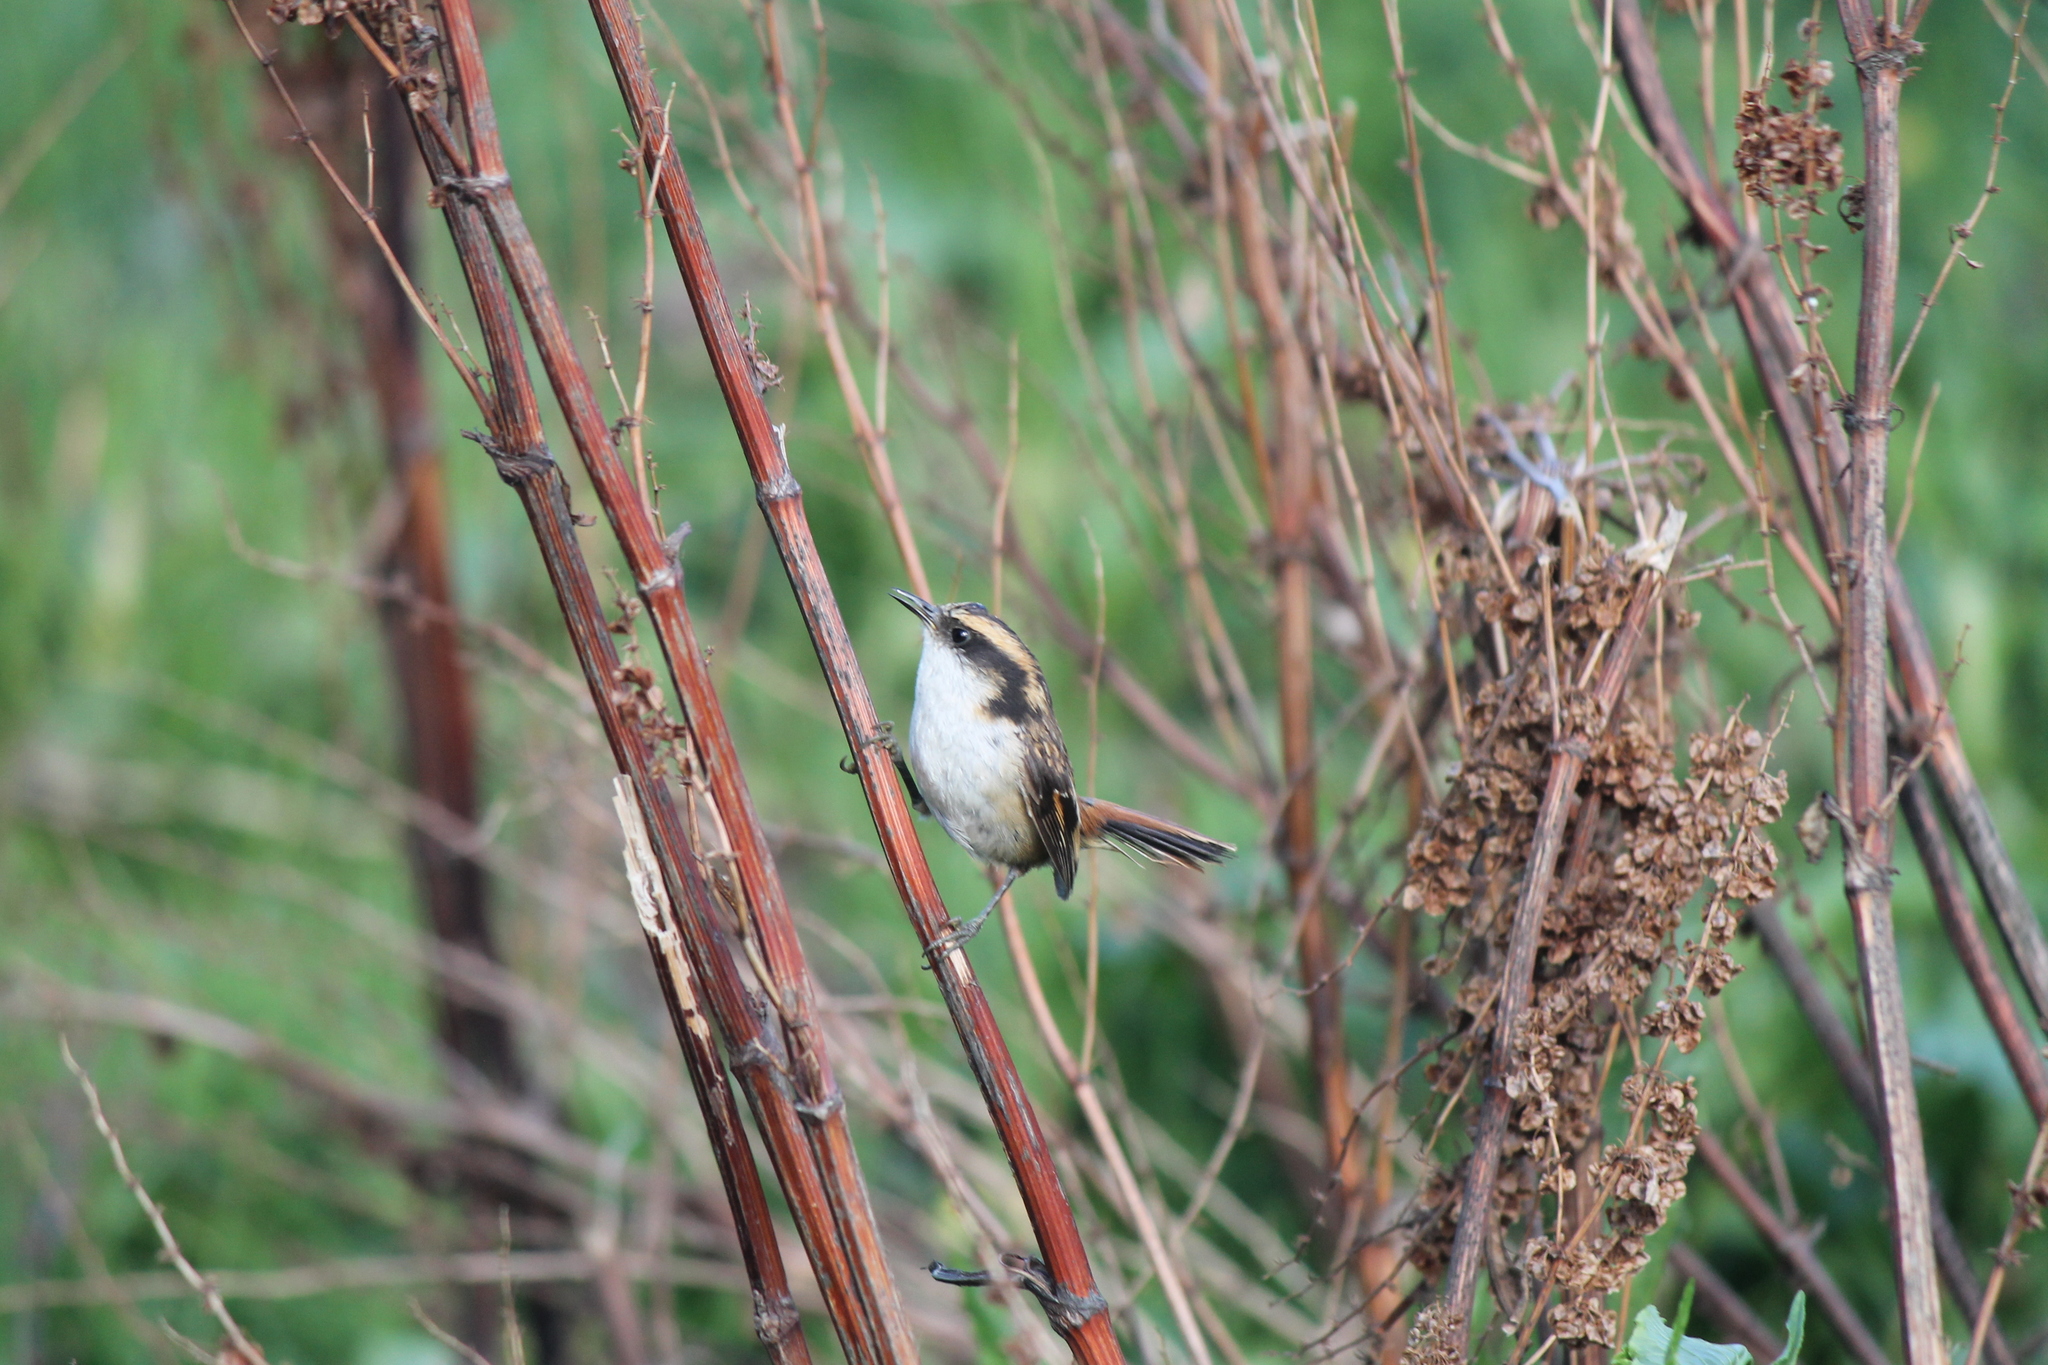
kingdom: Animalia
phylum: Chordata
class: Aves
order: Passeriformes
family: Furnariidae
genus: Aphrastura
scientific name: Aphrastura spinicauda
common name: Thorn-tailed rayadito
